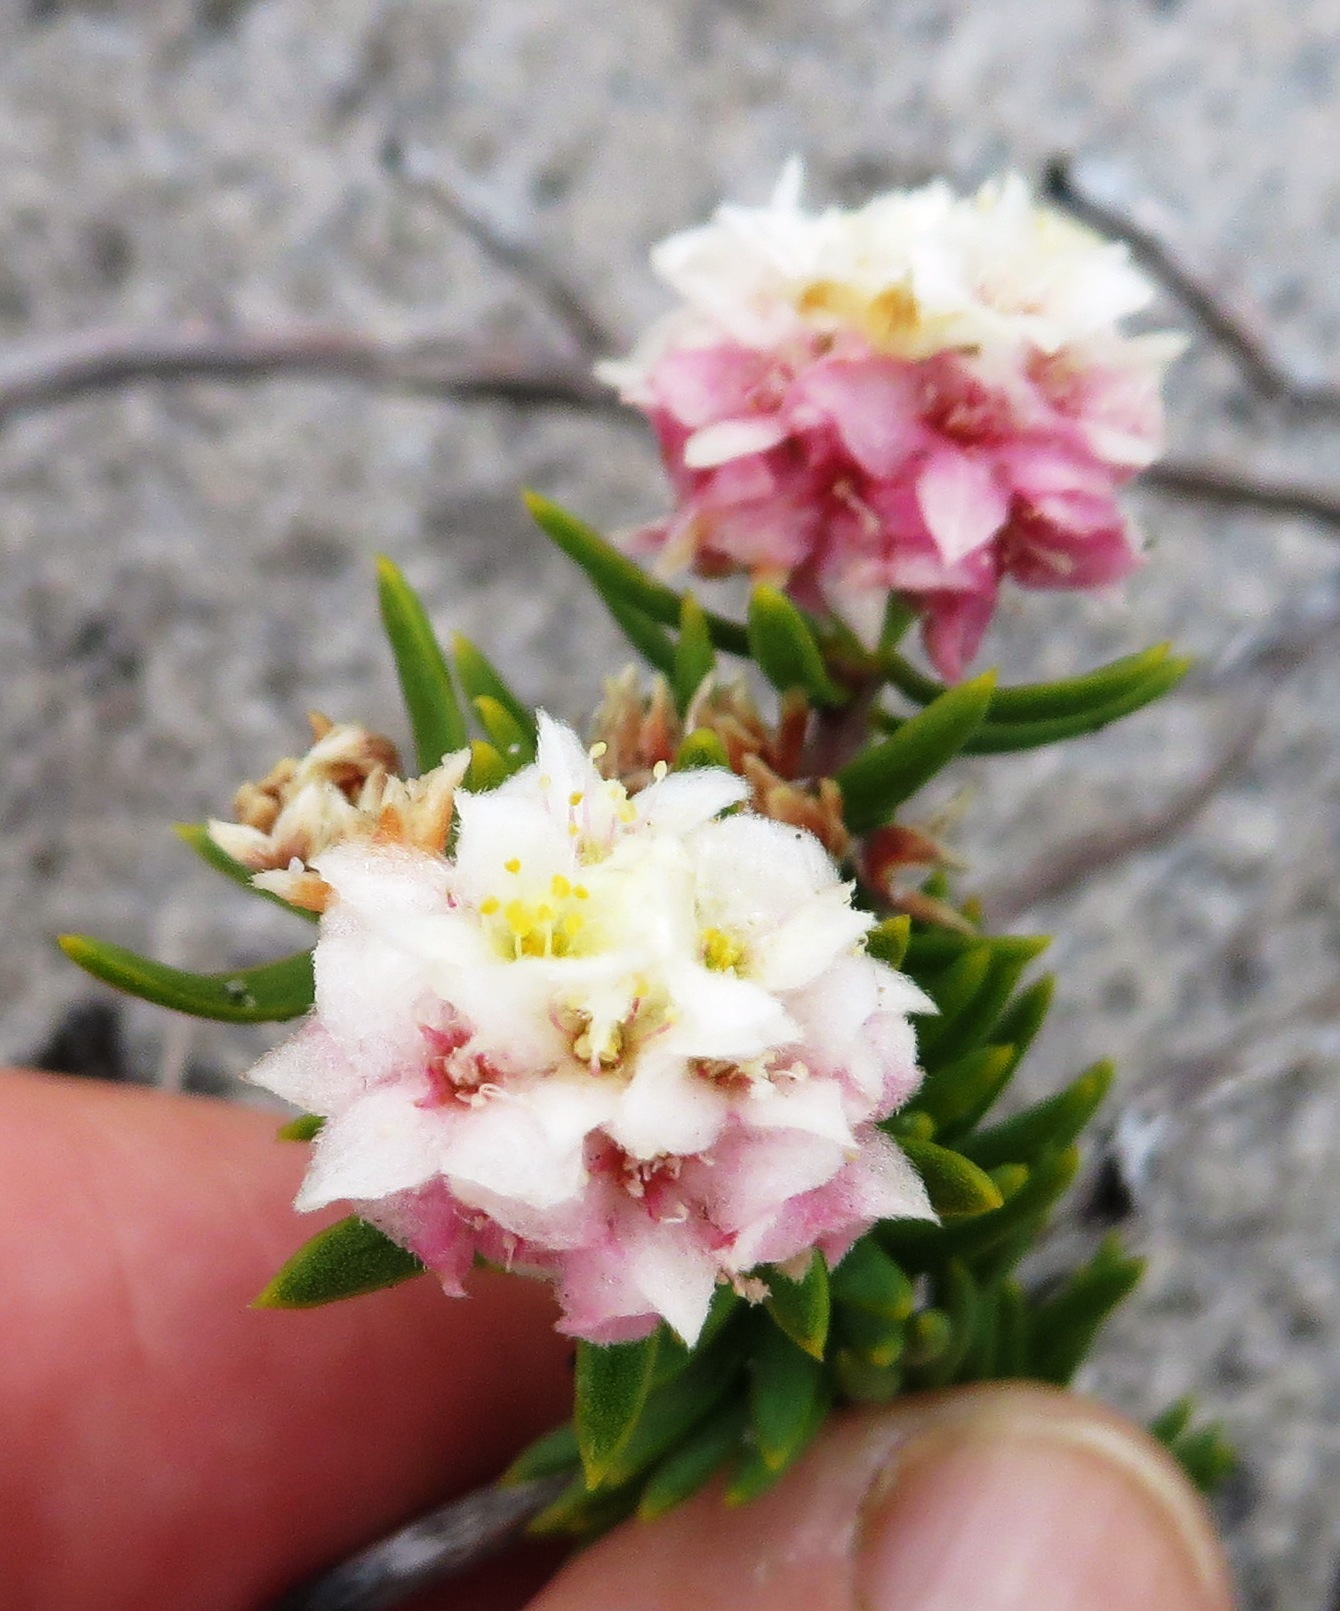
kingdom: Plantae
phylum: Tracheophyta
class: Magnoliopsida
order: Malvales
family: Thymelaeaceae
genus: Lachnaea
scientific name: Lachnaea densiflora
